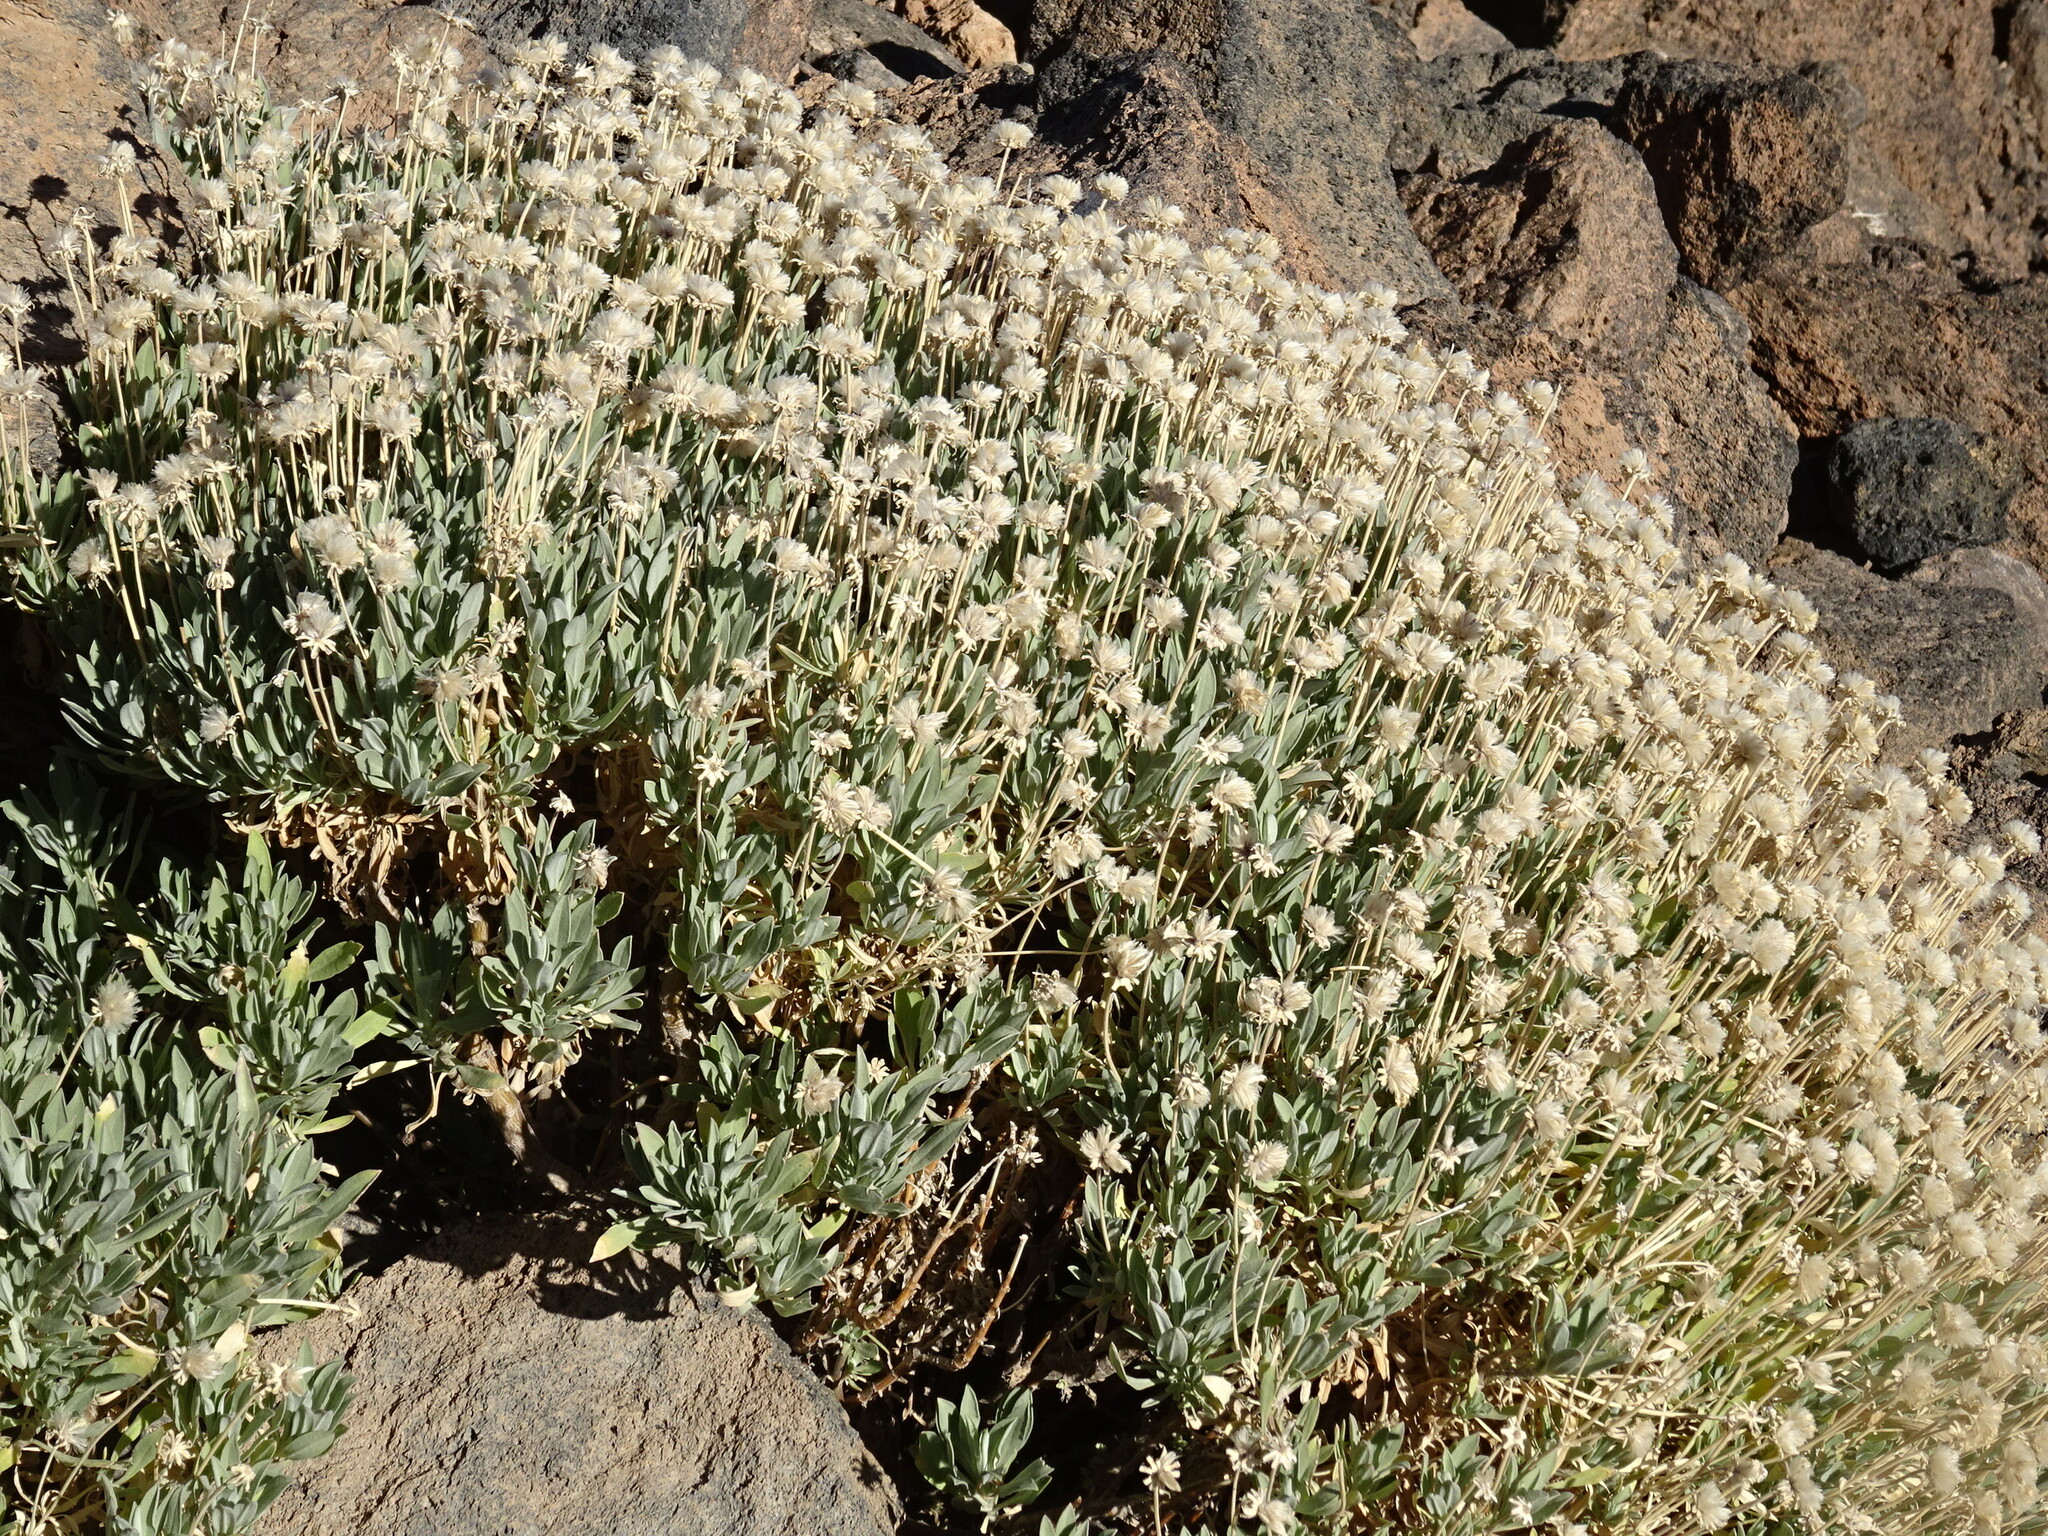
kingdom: Plantae
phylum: Tracheophyta
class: Magnoliopsida
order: Dipsacales
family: Caprifoliaceae
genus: Pterocephalus
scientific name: Pterocephalus lasiospermus
